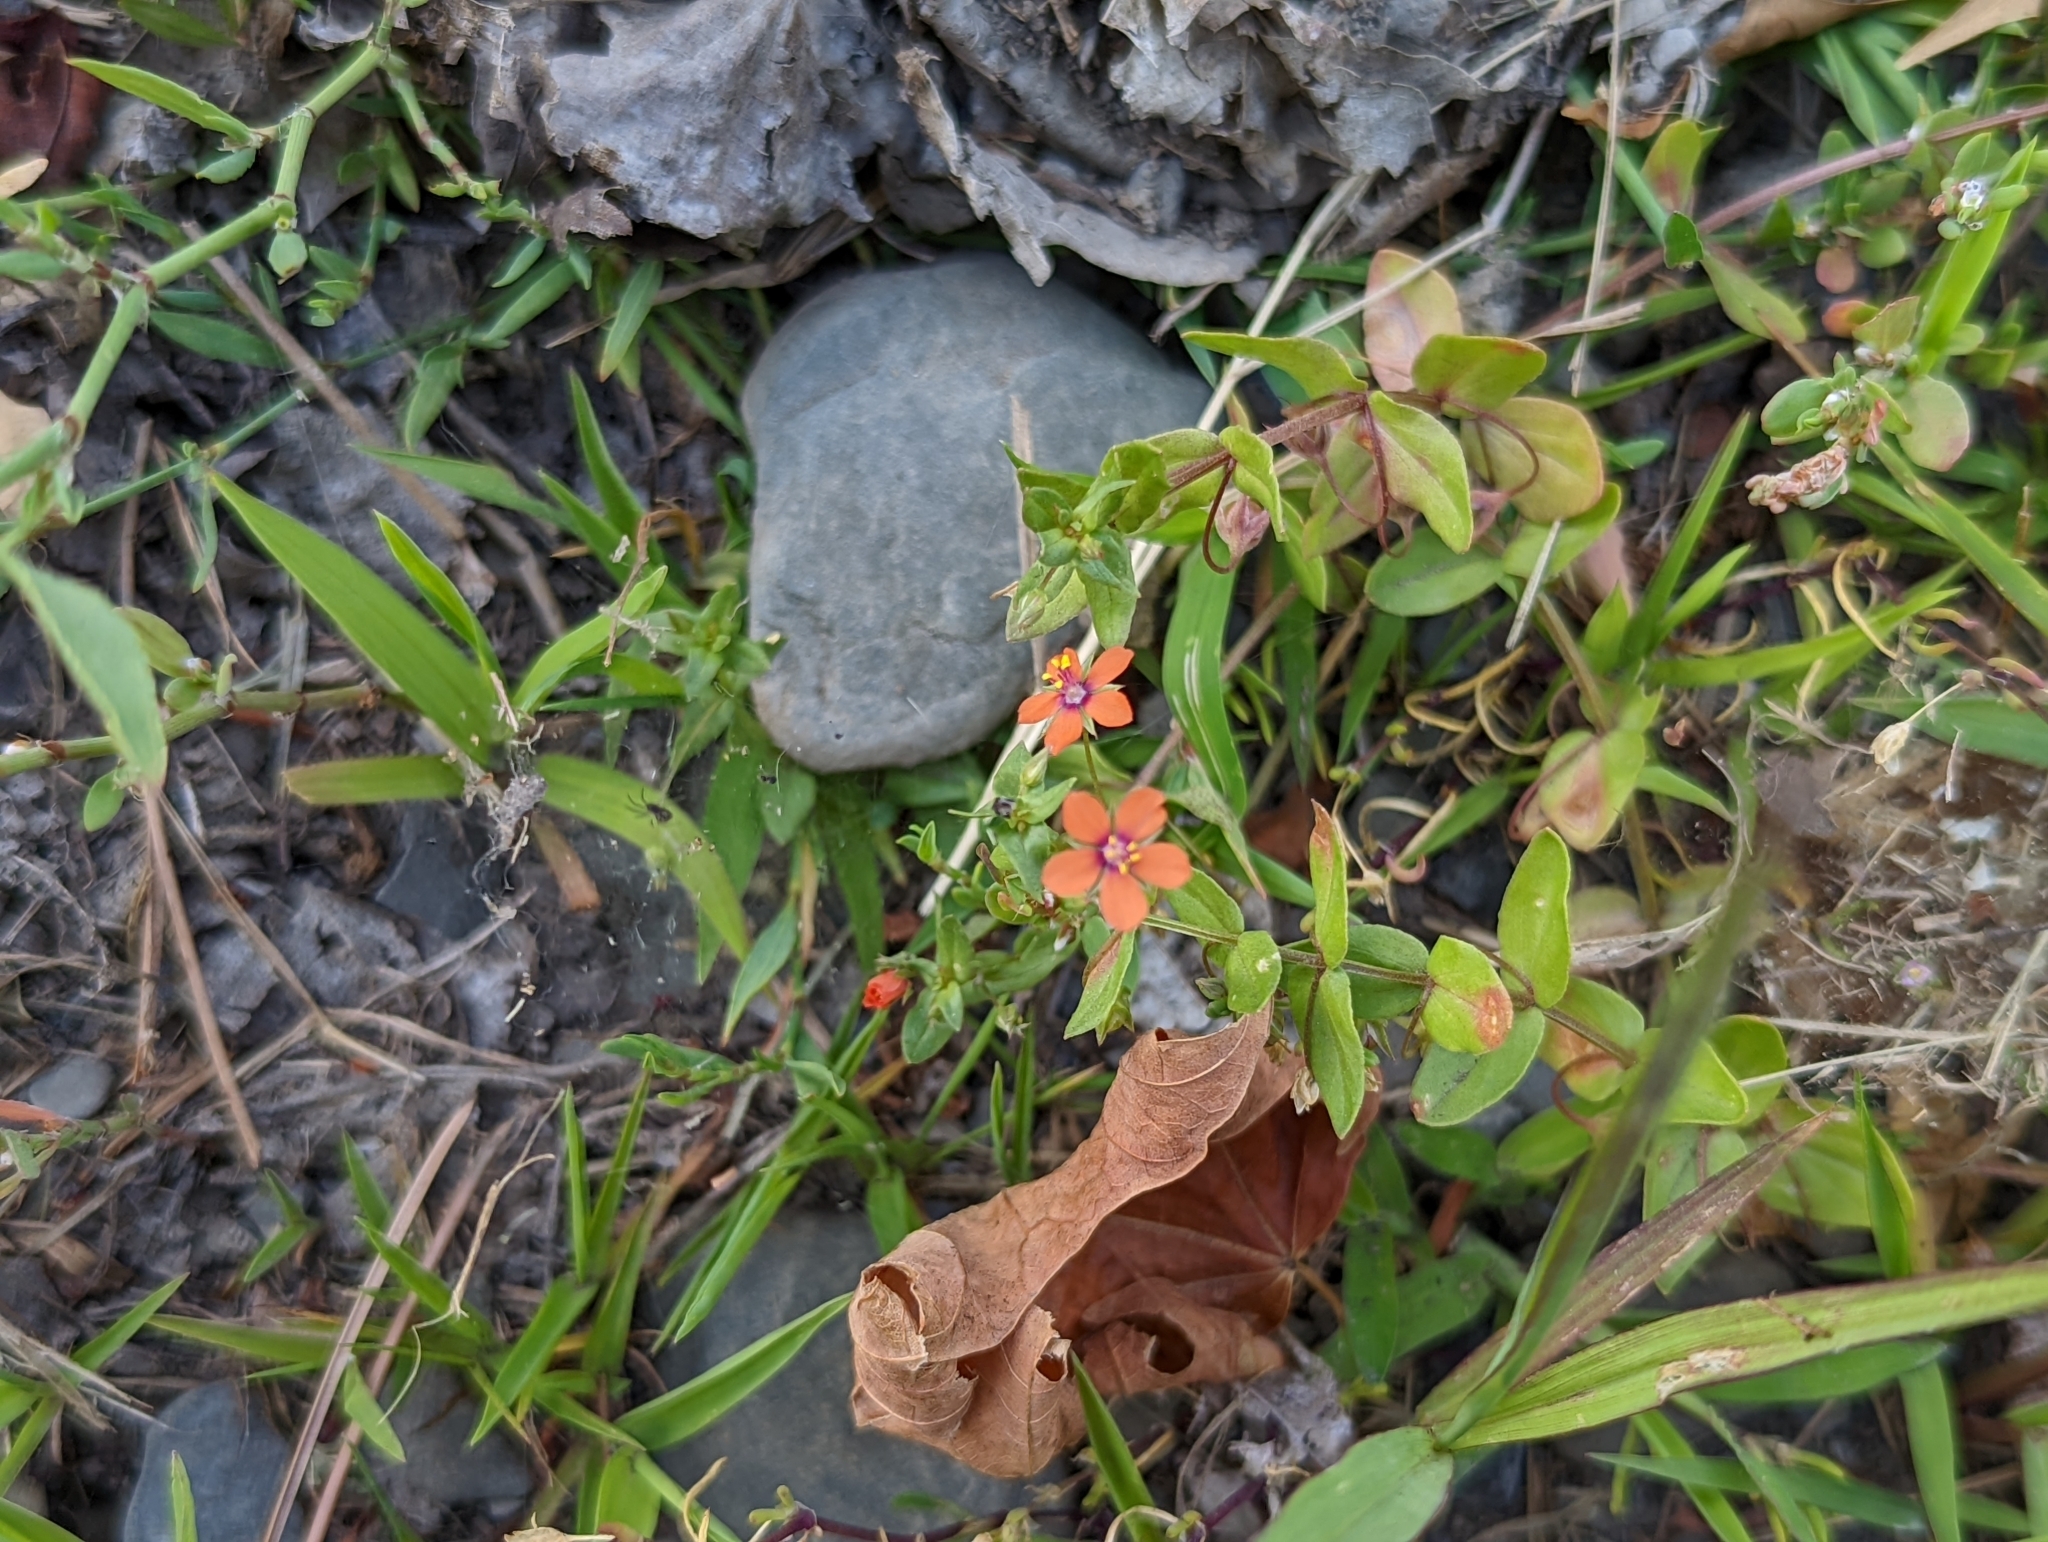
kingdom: Plantae
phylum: Tracheophyta
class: Magnoliopsida
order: Ericales
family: Primulaceae
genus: Lysimachia
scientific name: Lysimachia arvensis
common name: Scarlet pimpernel
